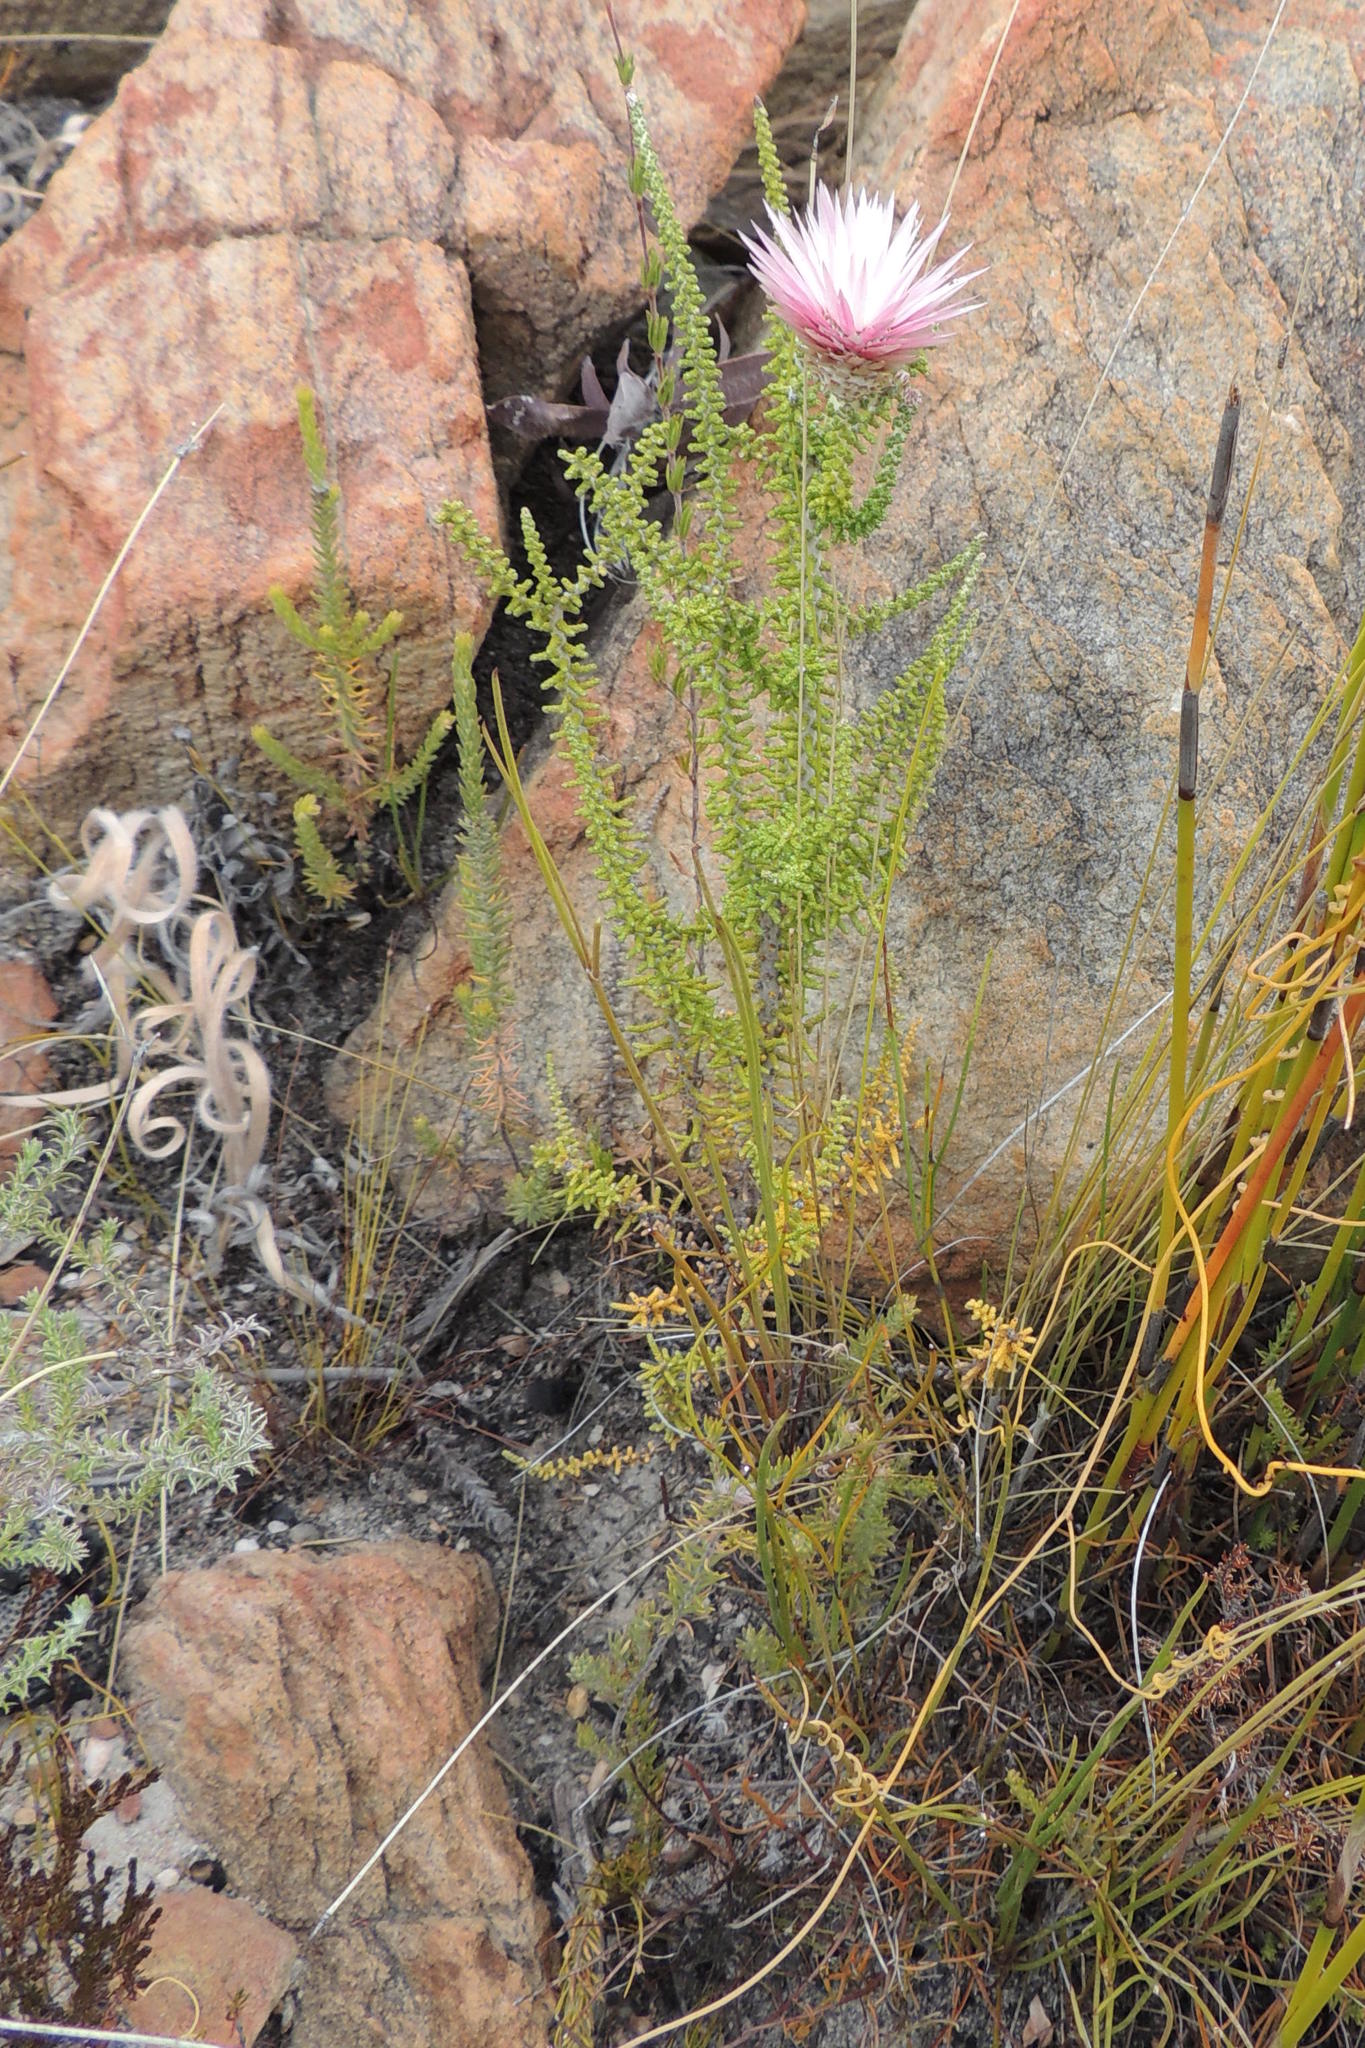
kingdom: Plantae
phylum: Tracheophyta
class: Magnoliopsida
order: Asterales
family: Asteraceae
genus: Phaenocoma
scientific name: Phaenocoma prolifera
